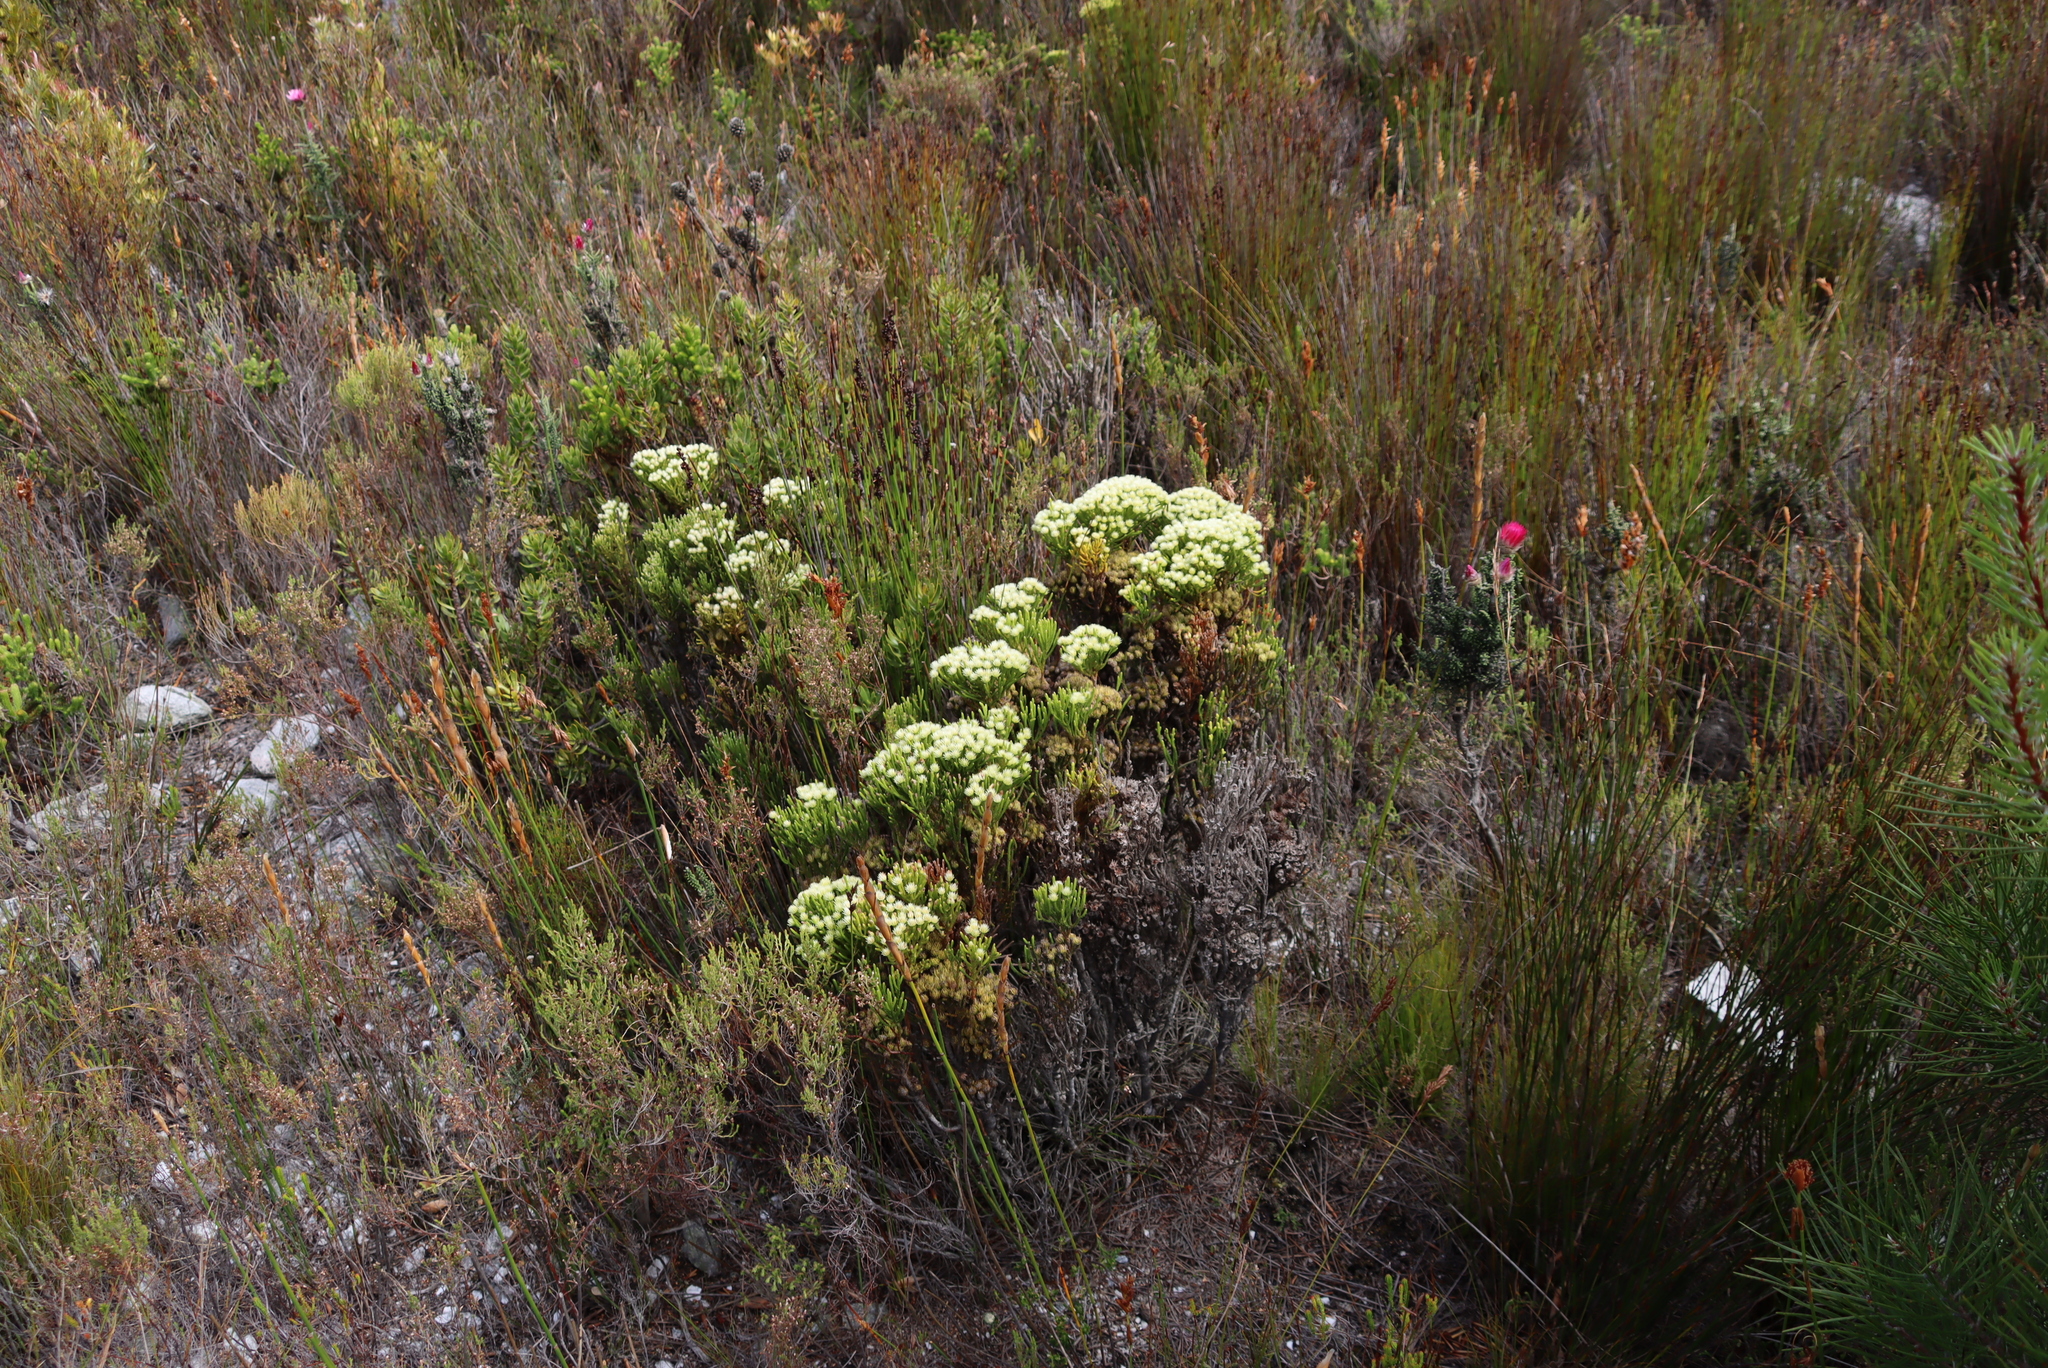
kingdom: Plantae
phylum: Tracheophyta
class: Magnoliopsida
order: Bruniales
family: Bruniaceae
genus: Brunia
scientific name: Brunia paleacea
